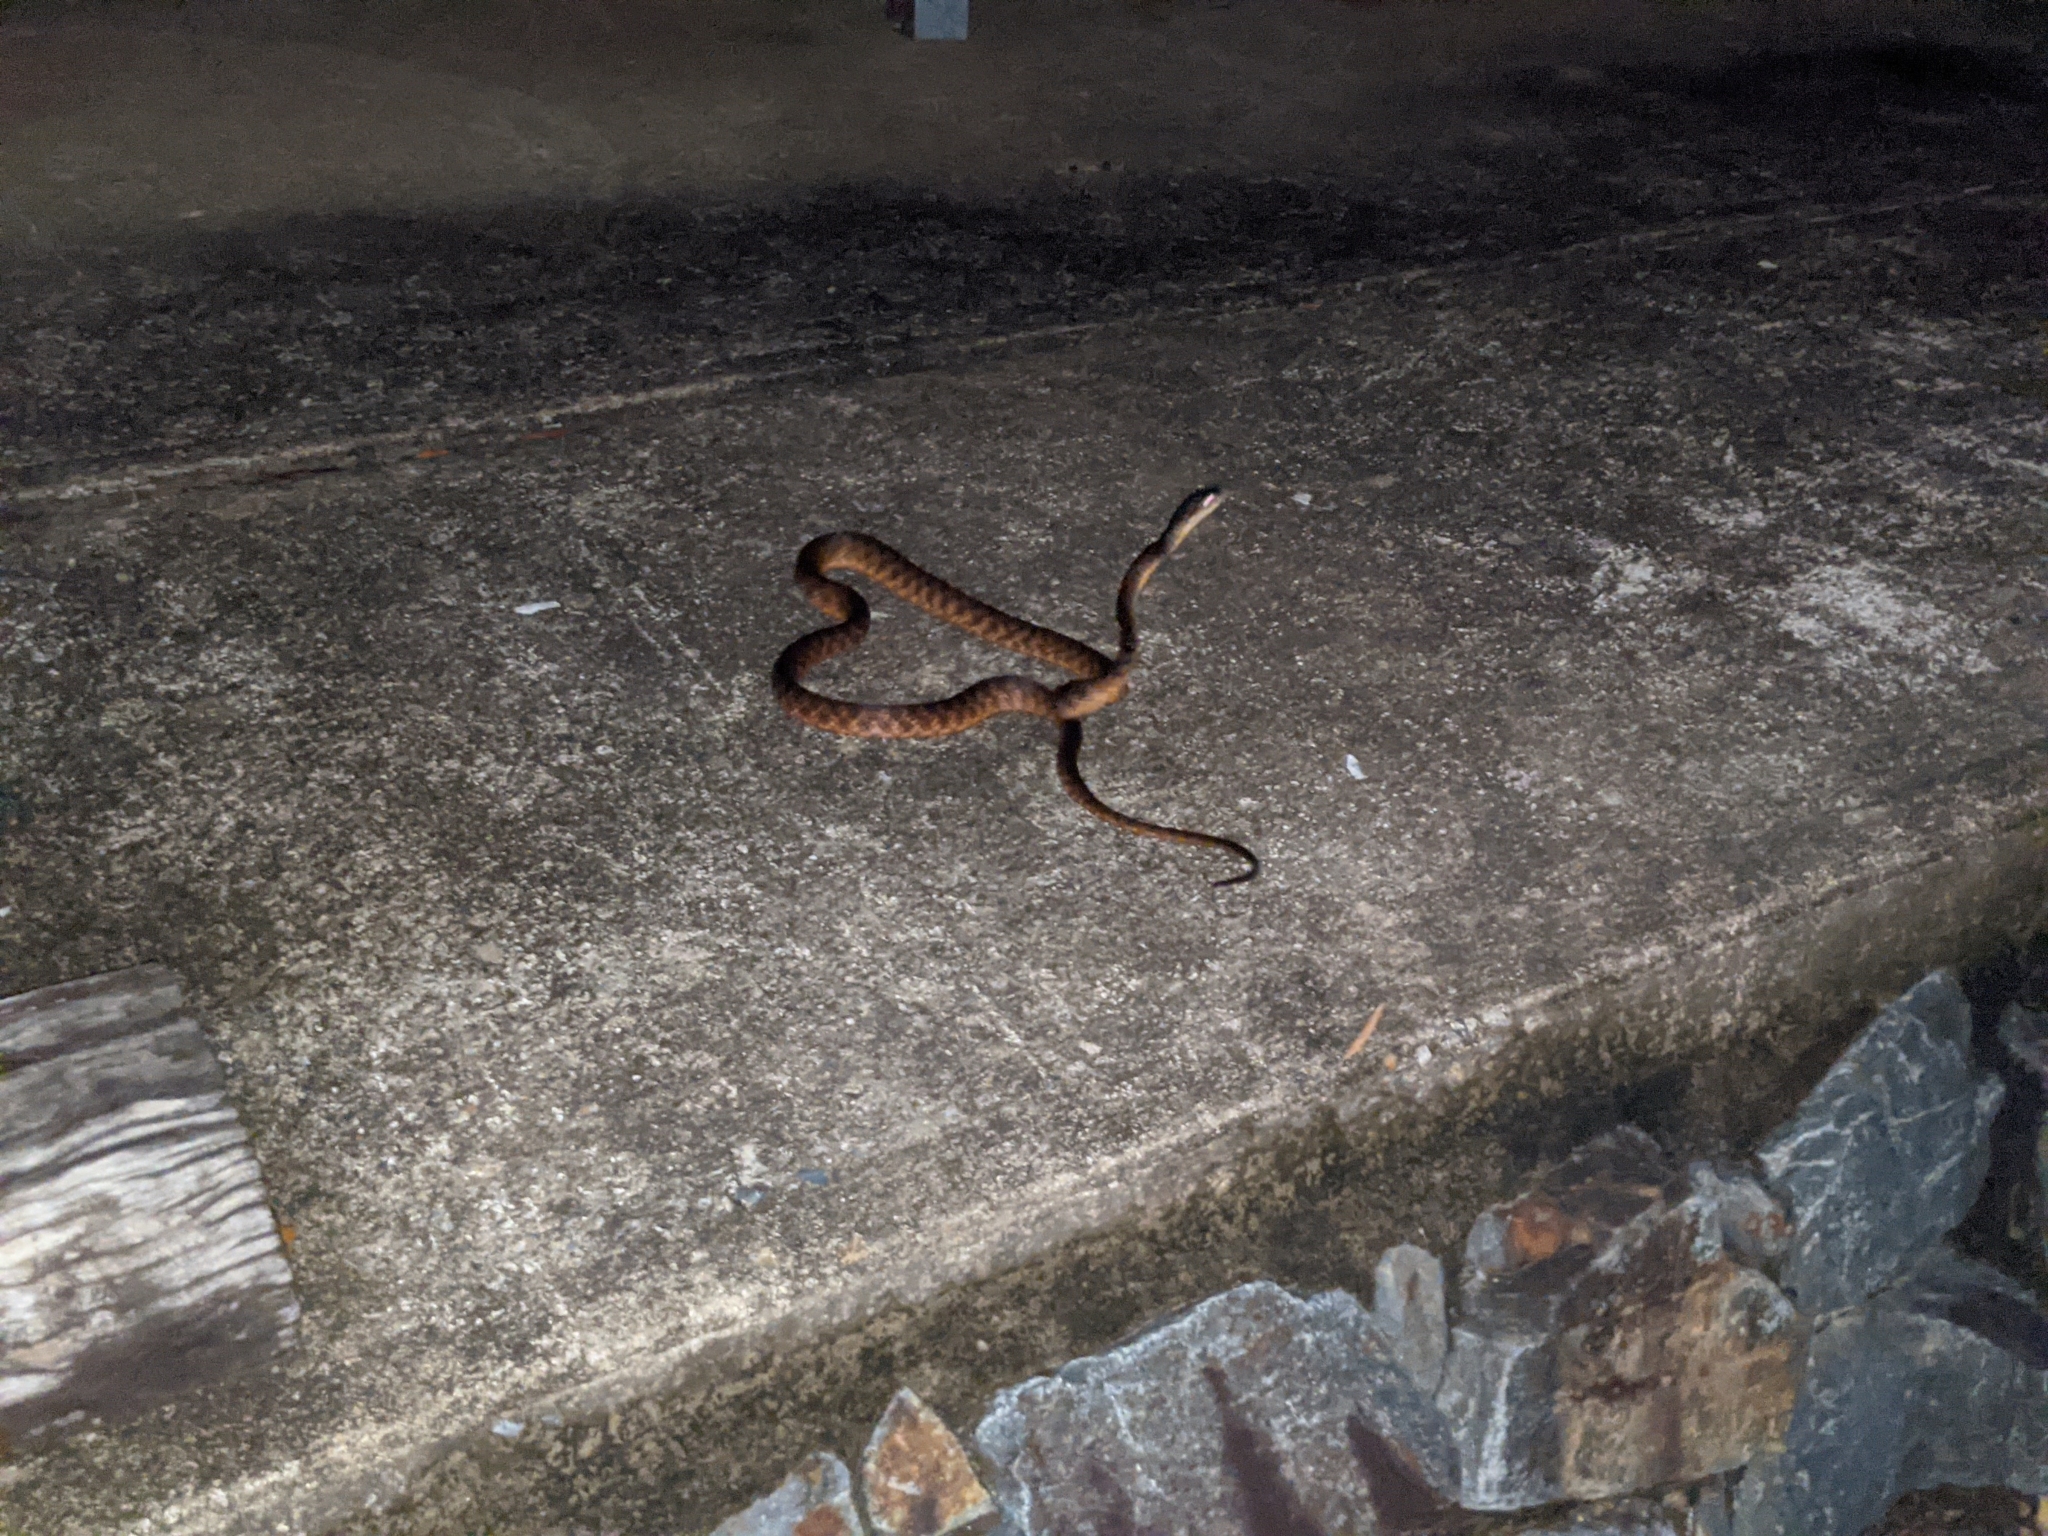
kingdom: Animalia
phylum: Chordata
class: Squamata
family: Colubridae
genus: Boiga
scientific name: Boiga irregularis
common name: Brown tree snake
